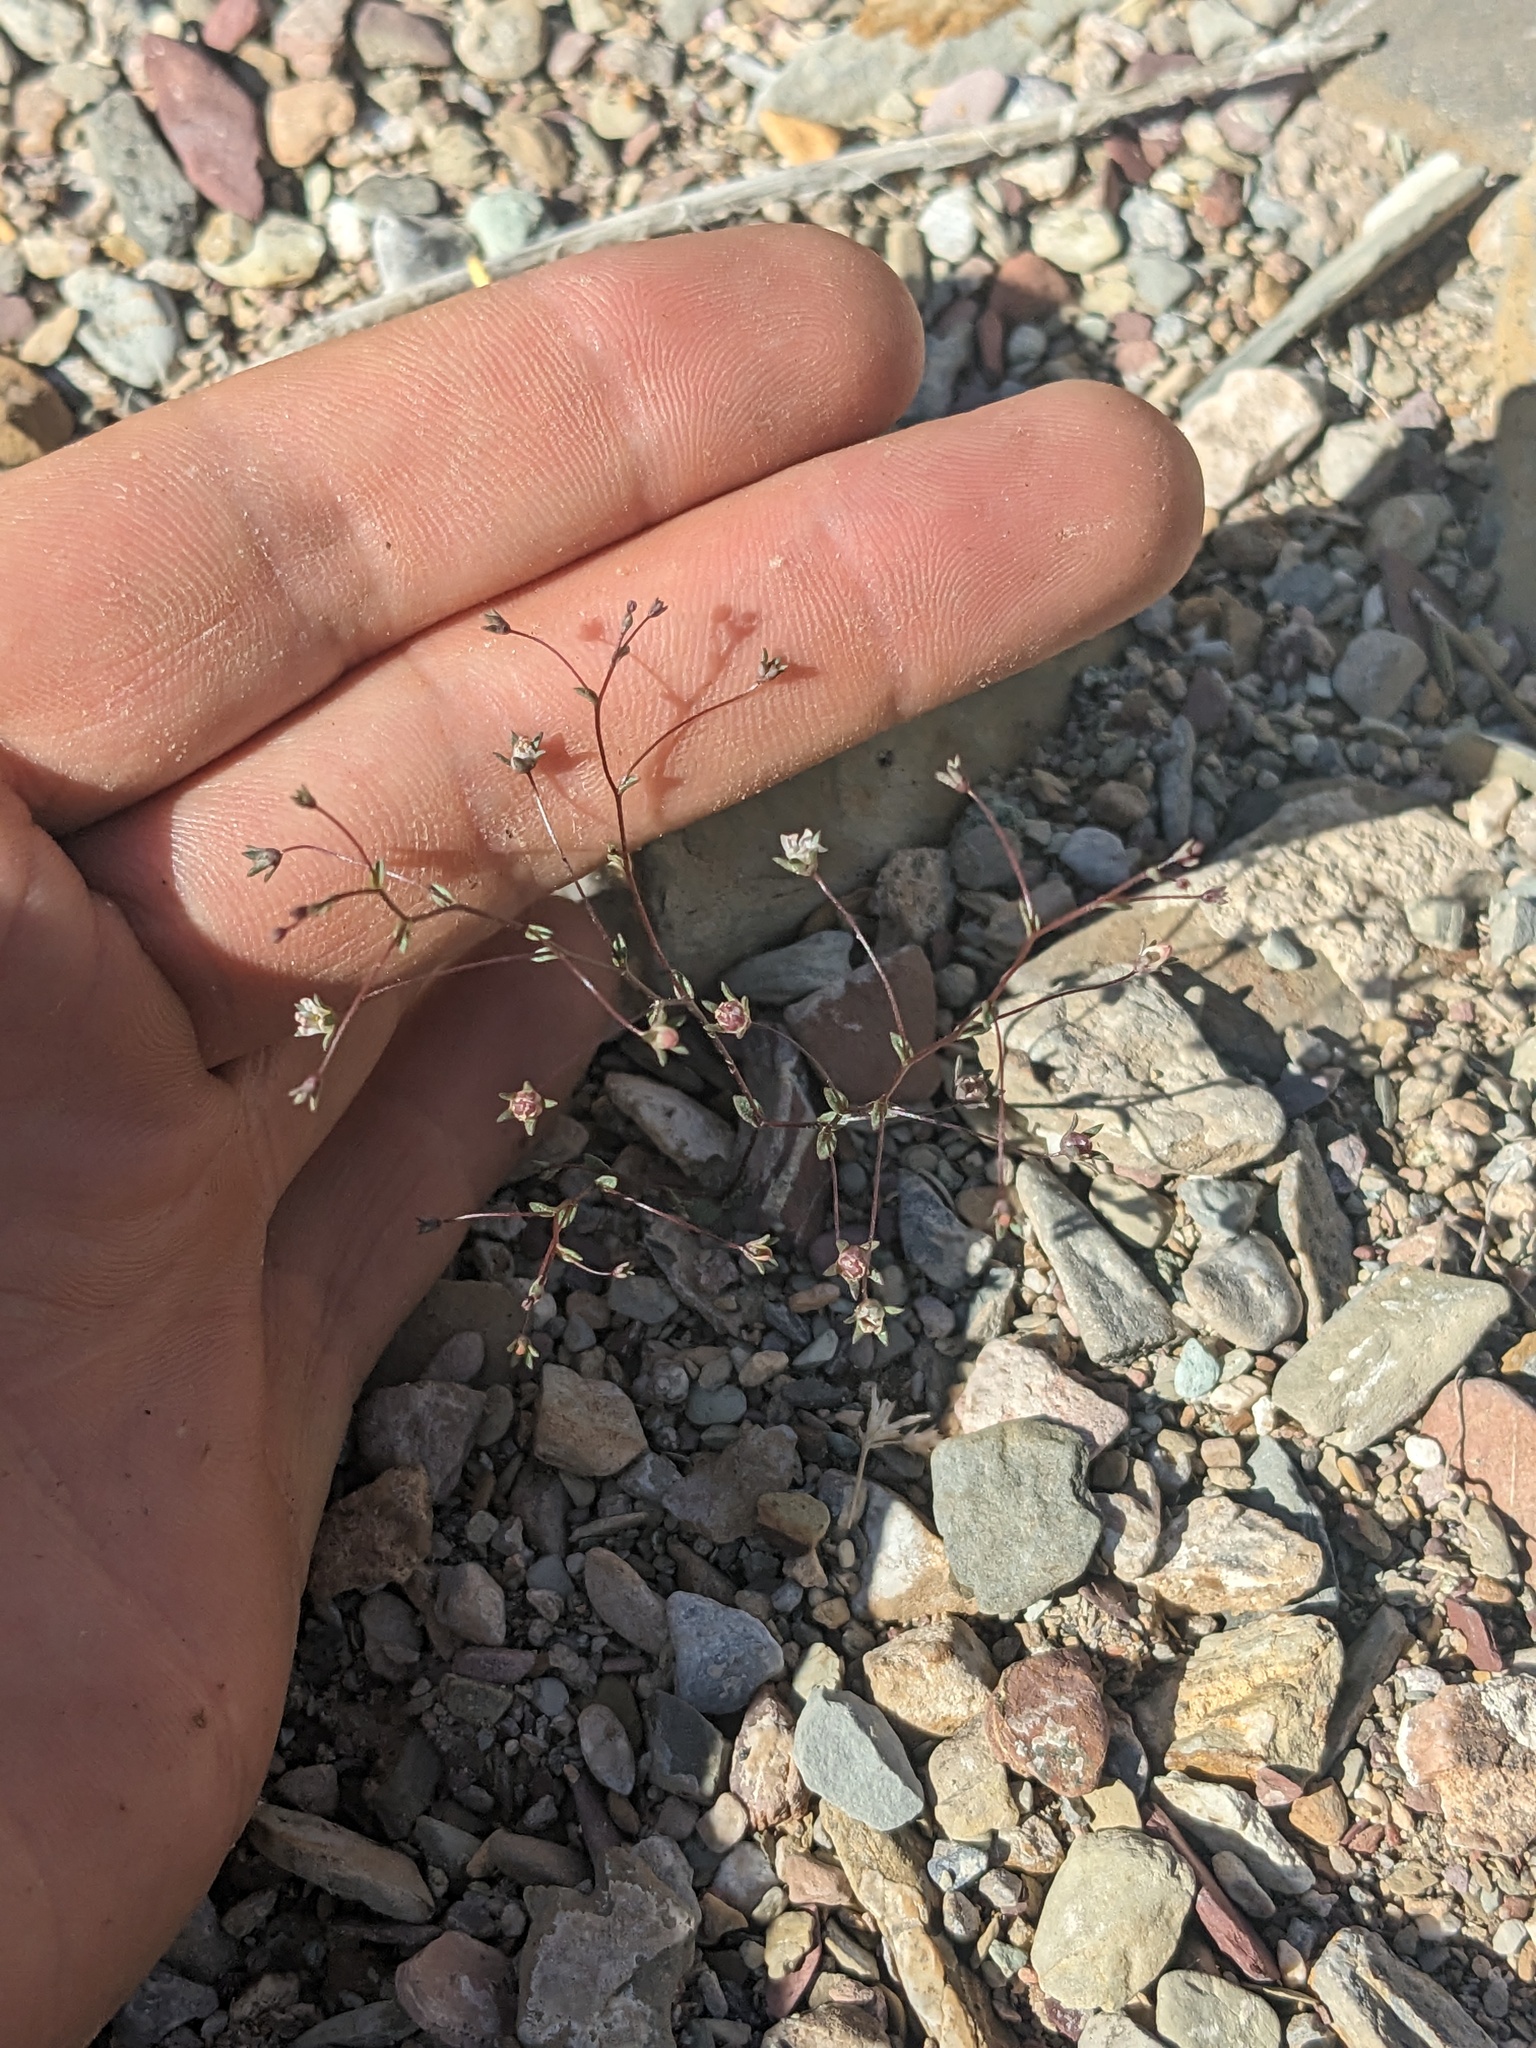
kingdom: Plantae
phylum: Tracheophyta
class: Magnoliopsida
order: Asterales
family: Campanulaceae
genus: Nemacladus
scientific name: Nemacladus inyoensis
